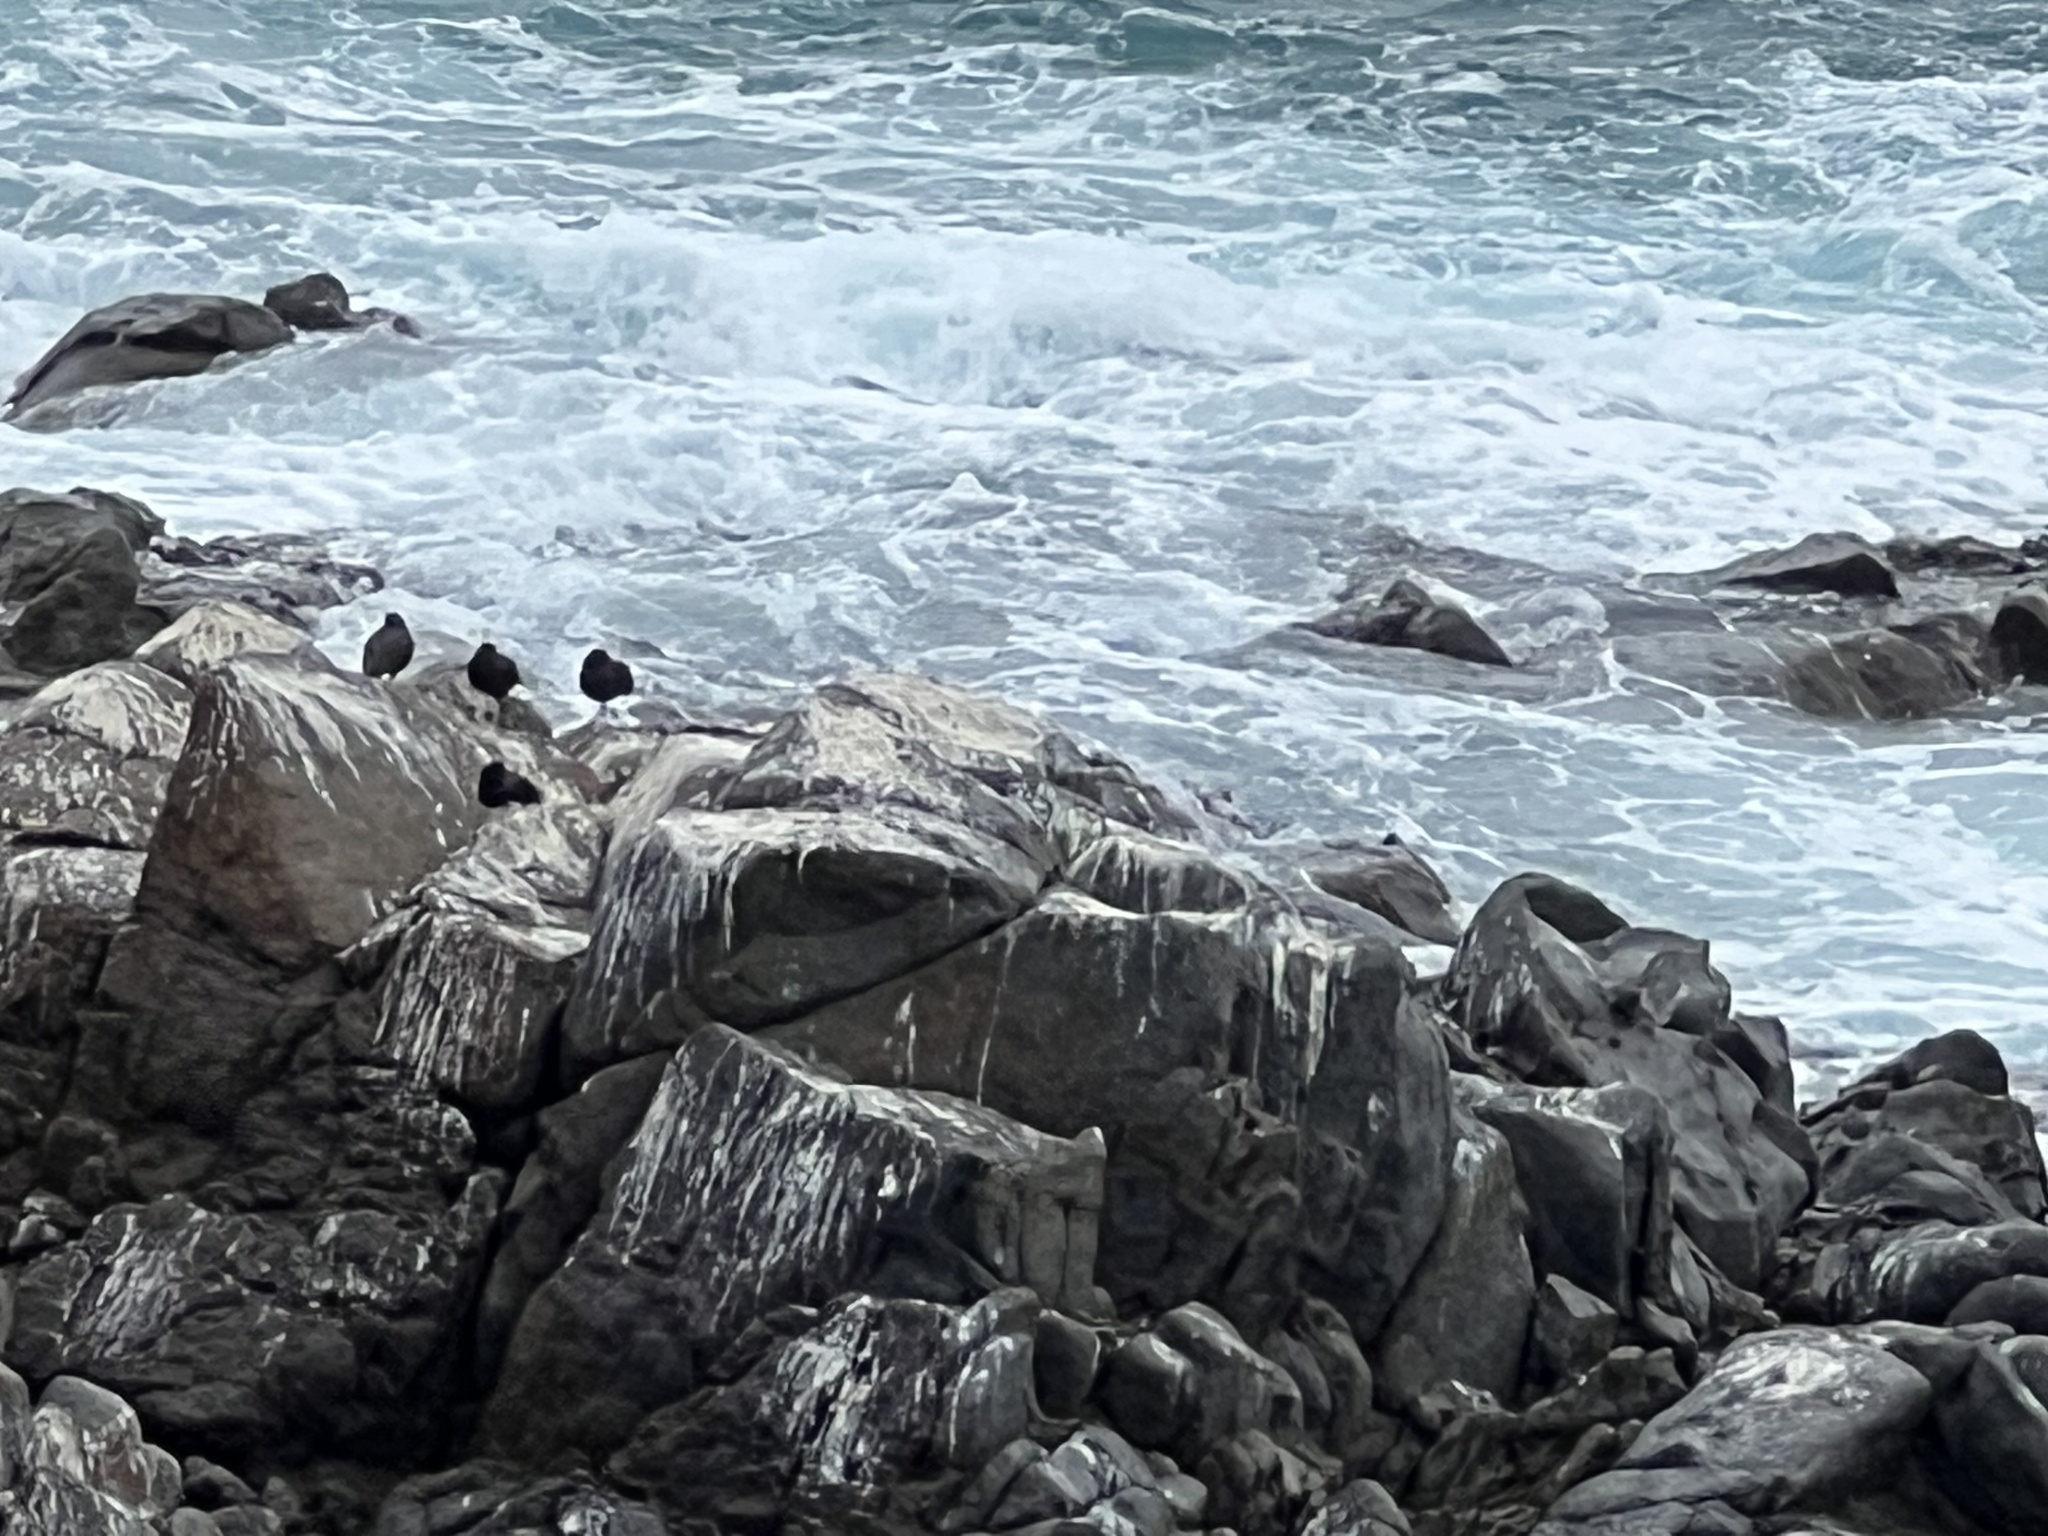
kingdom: Animalia
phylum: Chordata
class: Aves
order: Charadriiformes
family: Haematopodidae
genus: Haematopus
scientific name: Haematopus bachmani
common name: Black oystercatcher
